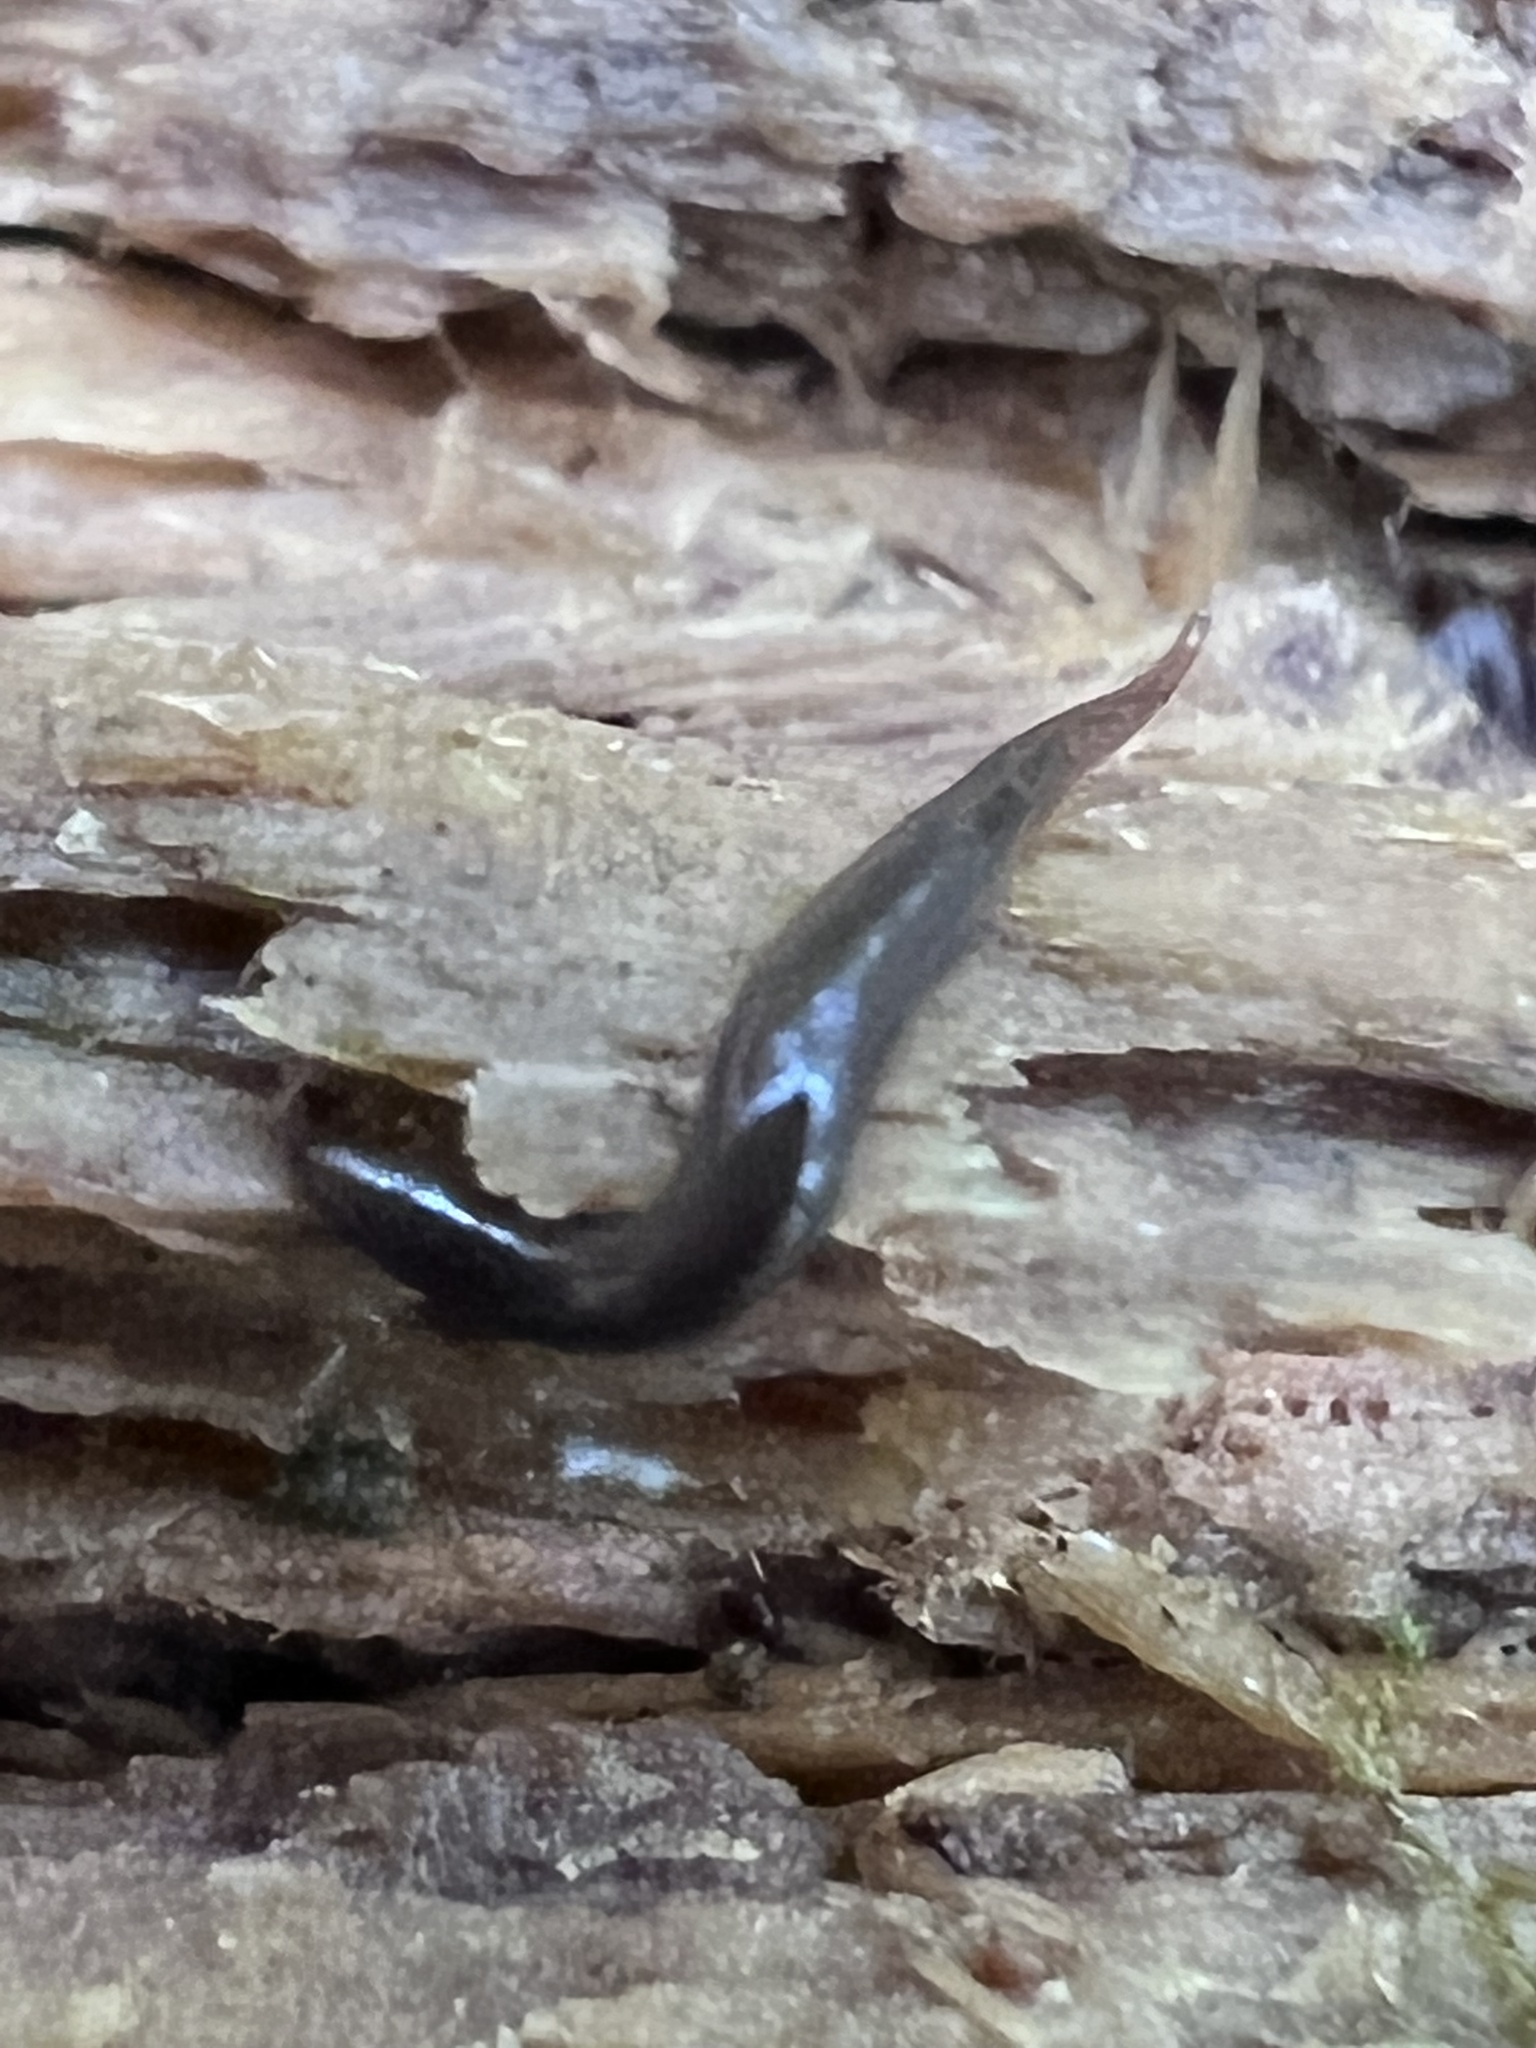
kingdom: Animalia
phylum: Platyhelminthes
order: Tricladida
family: Geoplanidae
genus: Rhynchodemus
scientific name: Rhynchodemus sylvaticus
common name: A flatworm
